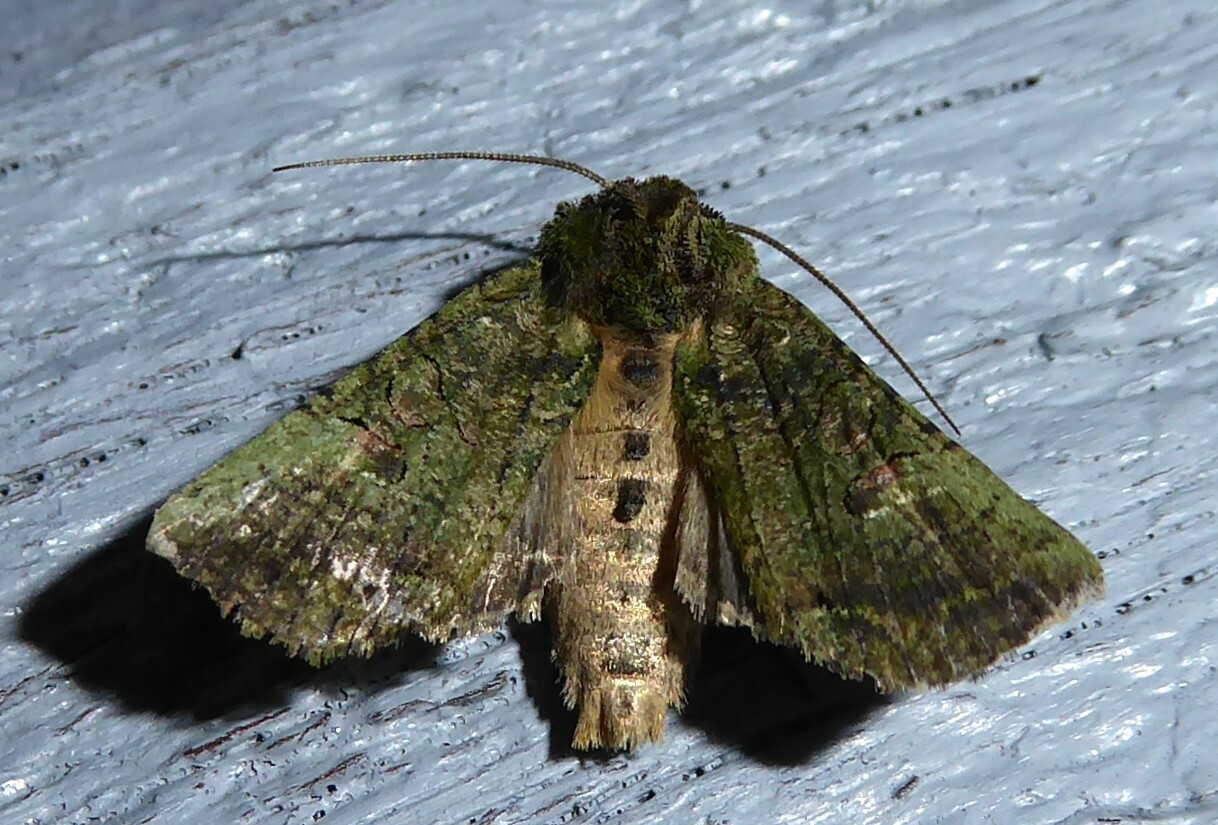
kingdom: Animalia
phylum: Arthropoda
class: Insecta
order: Lepidoptera
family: Noctuidae
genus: Meterana
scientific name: Meterana levis
